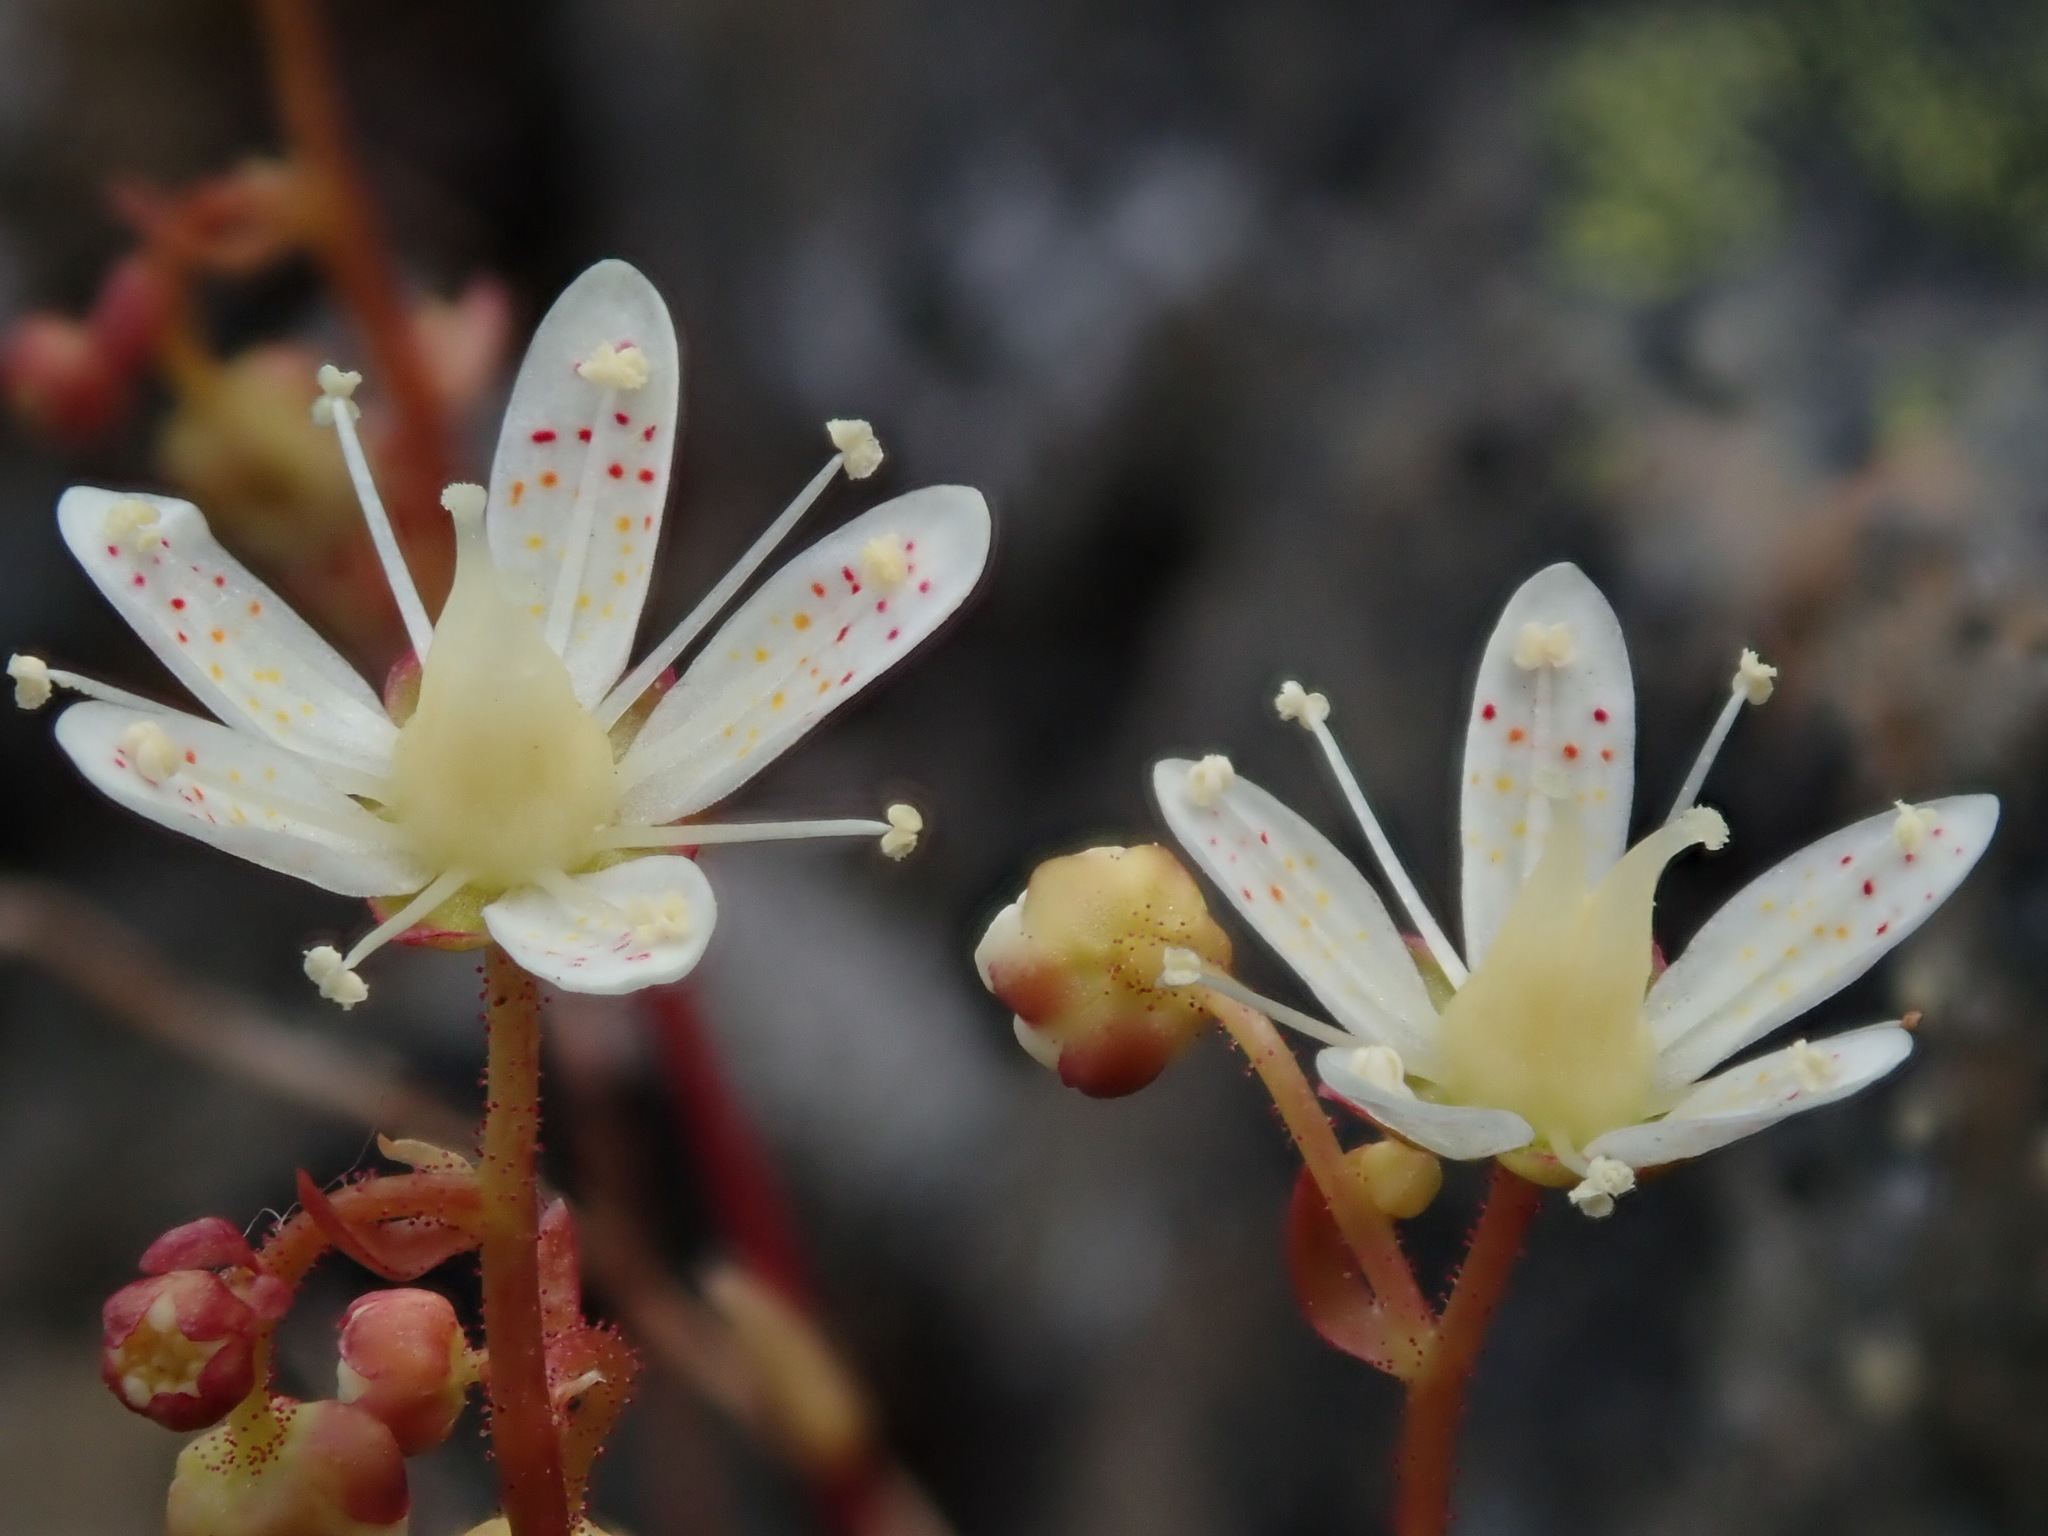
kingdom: Plantae
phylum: Tracheophyta
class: Magnoliopsida
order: Saxifragales
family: Saxifragaceae
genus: Saxifraga
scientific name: Saxifraga bronchialis
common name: Matted saxifrage
